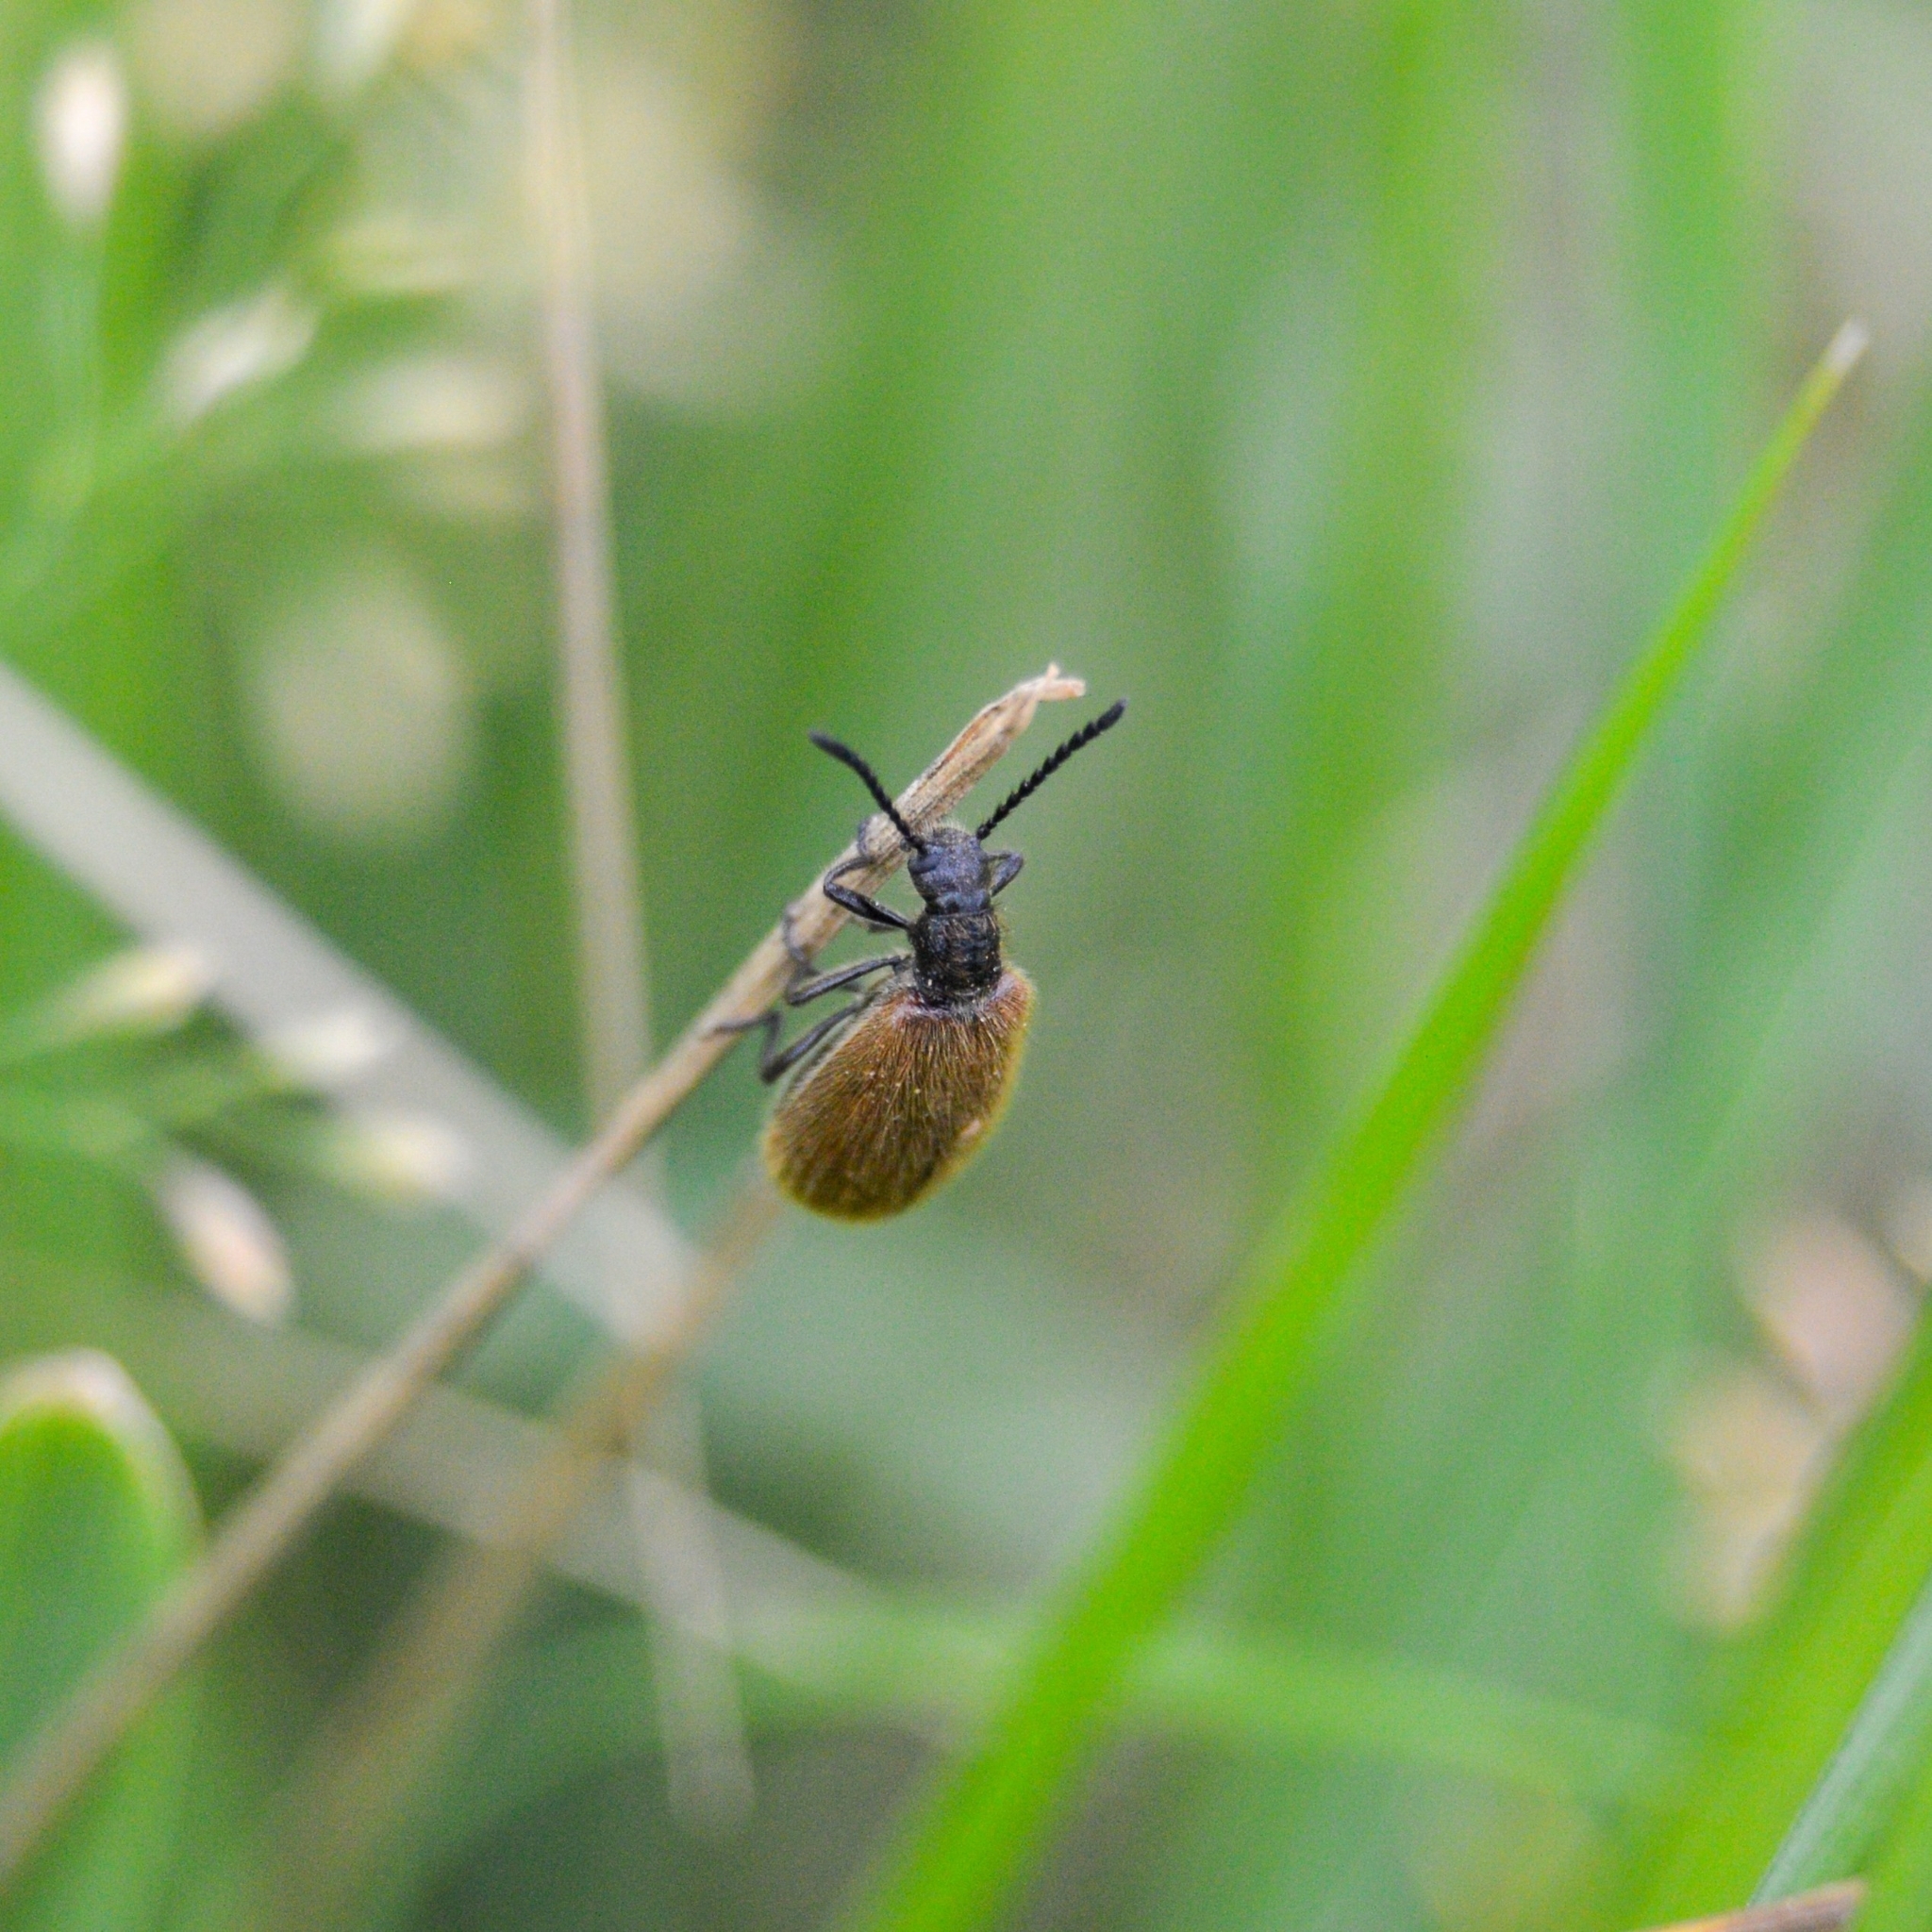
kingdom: Animalia
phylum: Arthropoda
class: Insecta
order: Coleoptera
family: Tenebrionidae
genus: Lagria
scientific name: Lagria hirta
